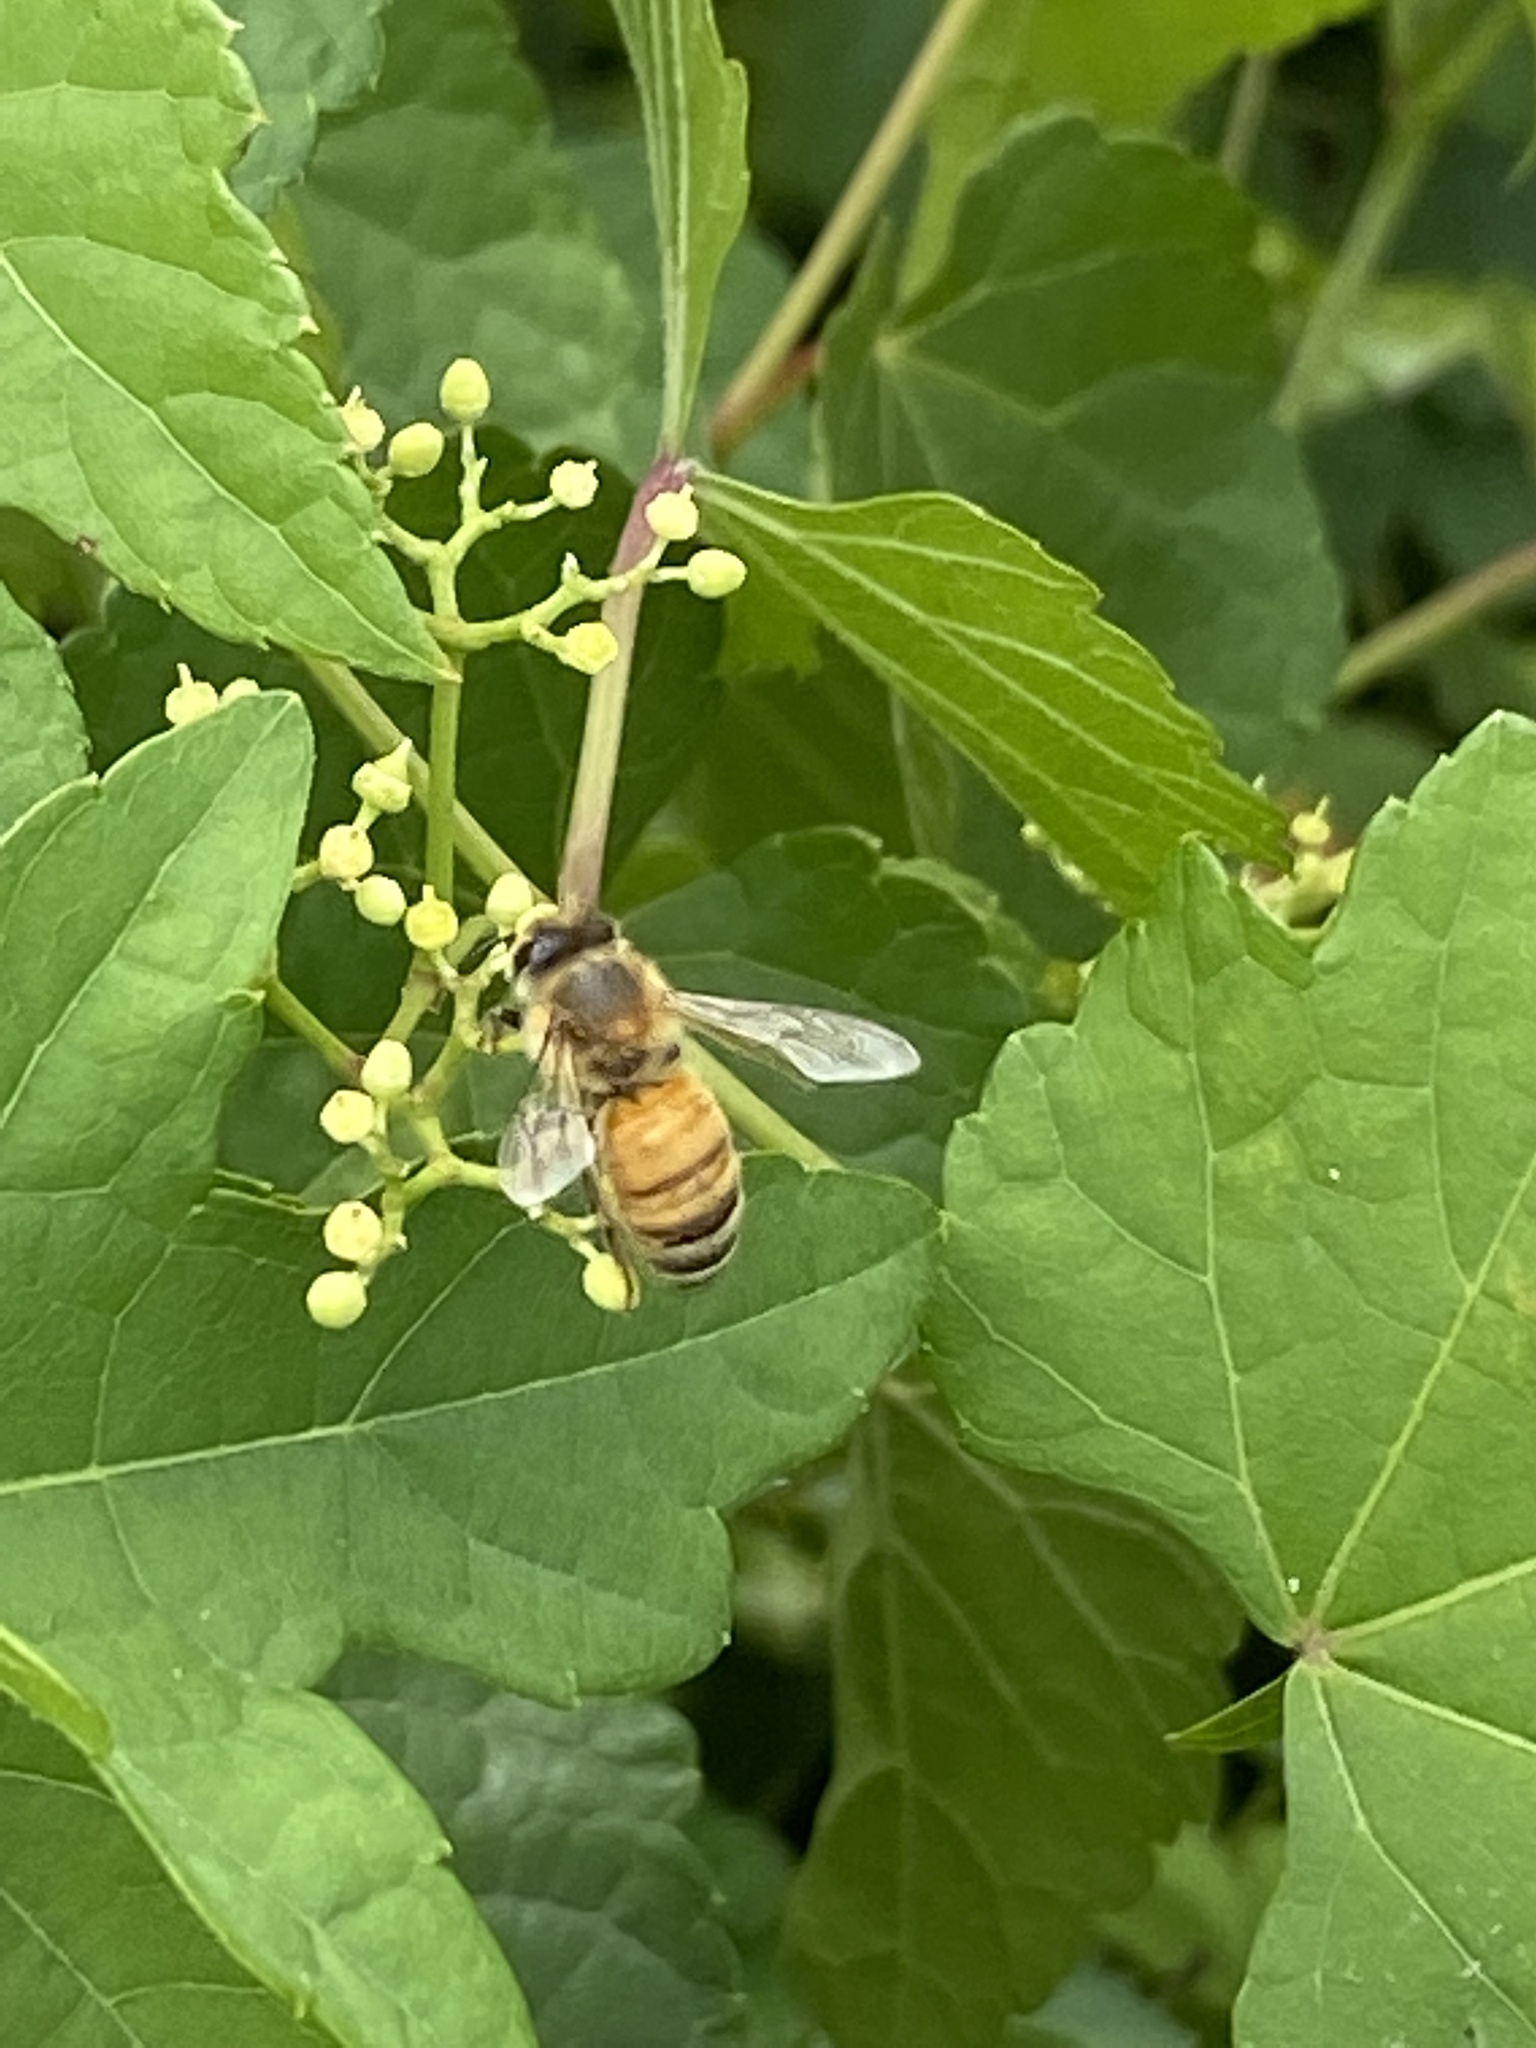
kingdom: Animalia
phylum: Arthropoda
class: Insecta
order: Hymenoptera
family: Apidae
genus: Apis
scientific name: Apis mellifera
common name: Honey bee
